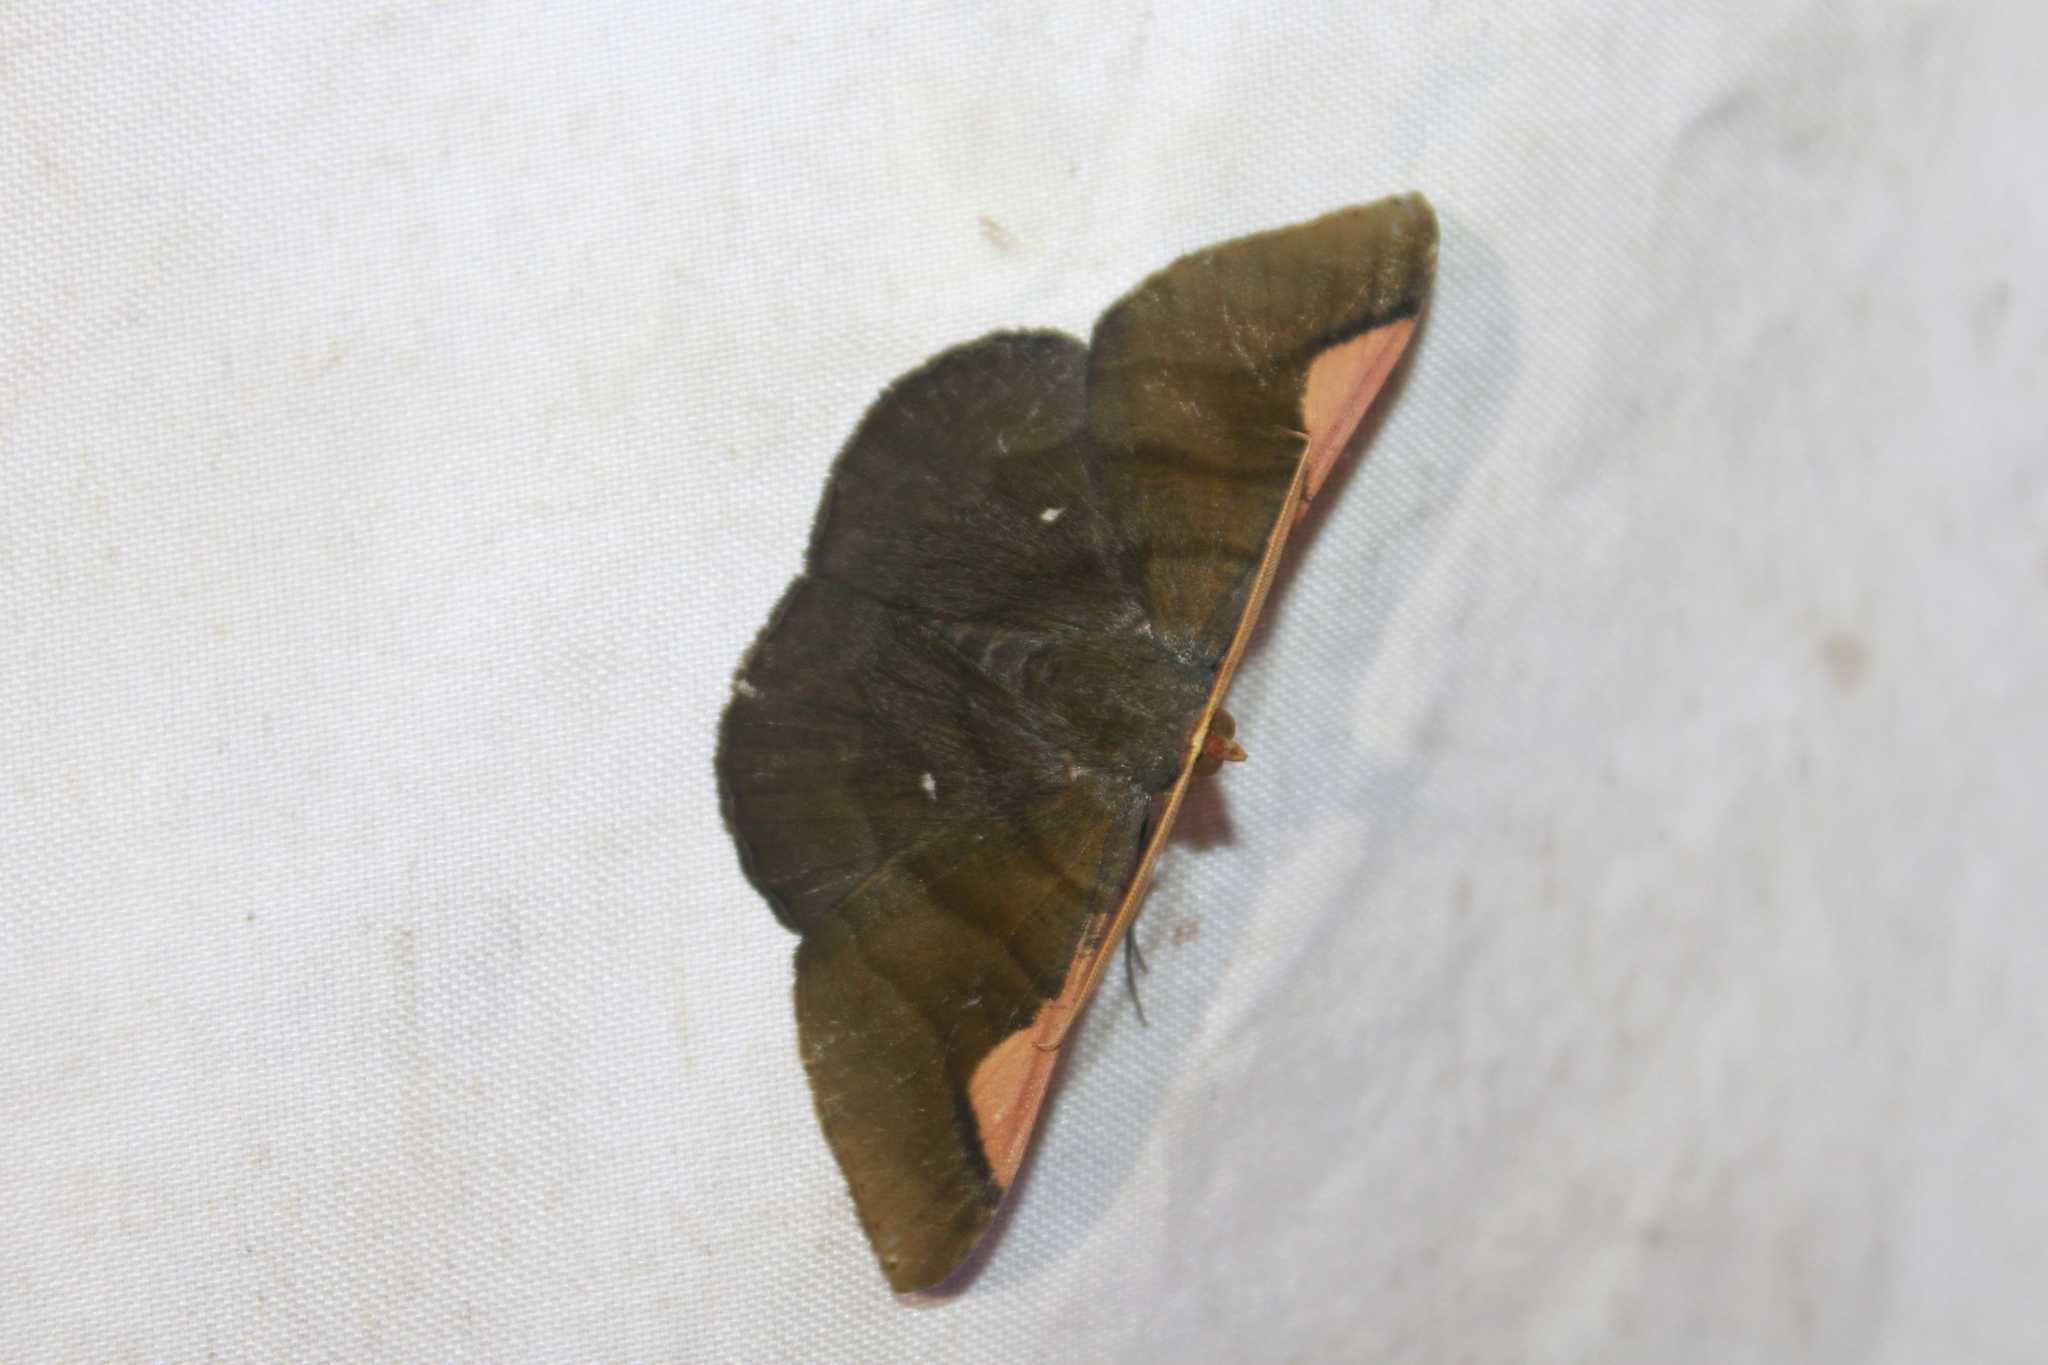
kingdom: Animalia
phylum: Arthropoda
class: Insecta
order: Lepidoptera
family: Geometridae
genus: Sphacelodes
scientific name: Sphacelodes vulneraria
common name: Looper moth
